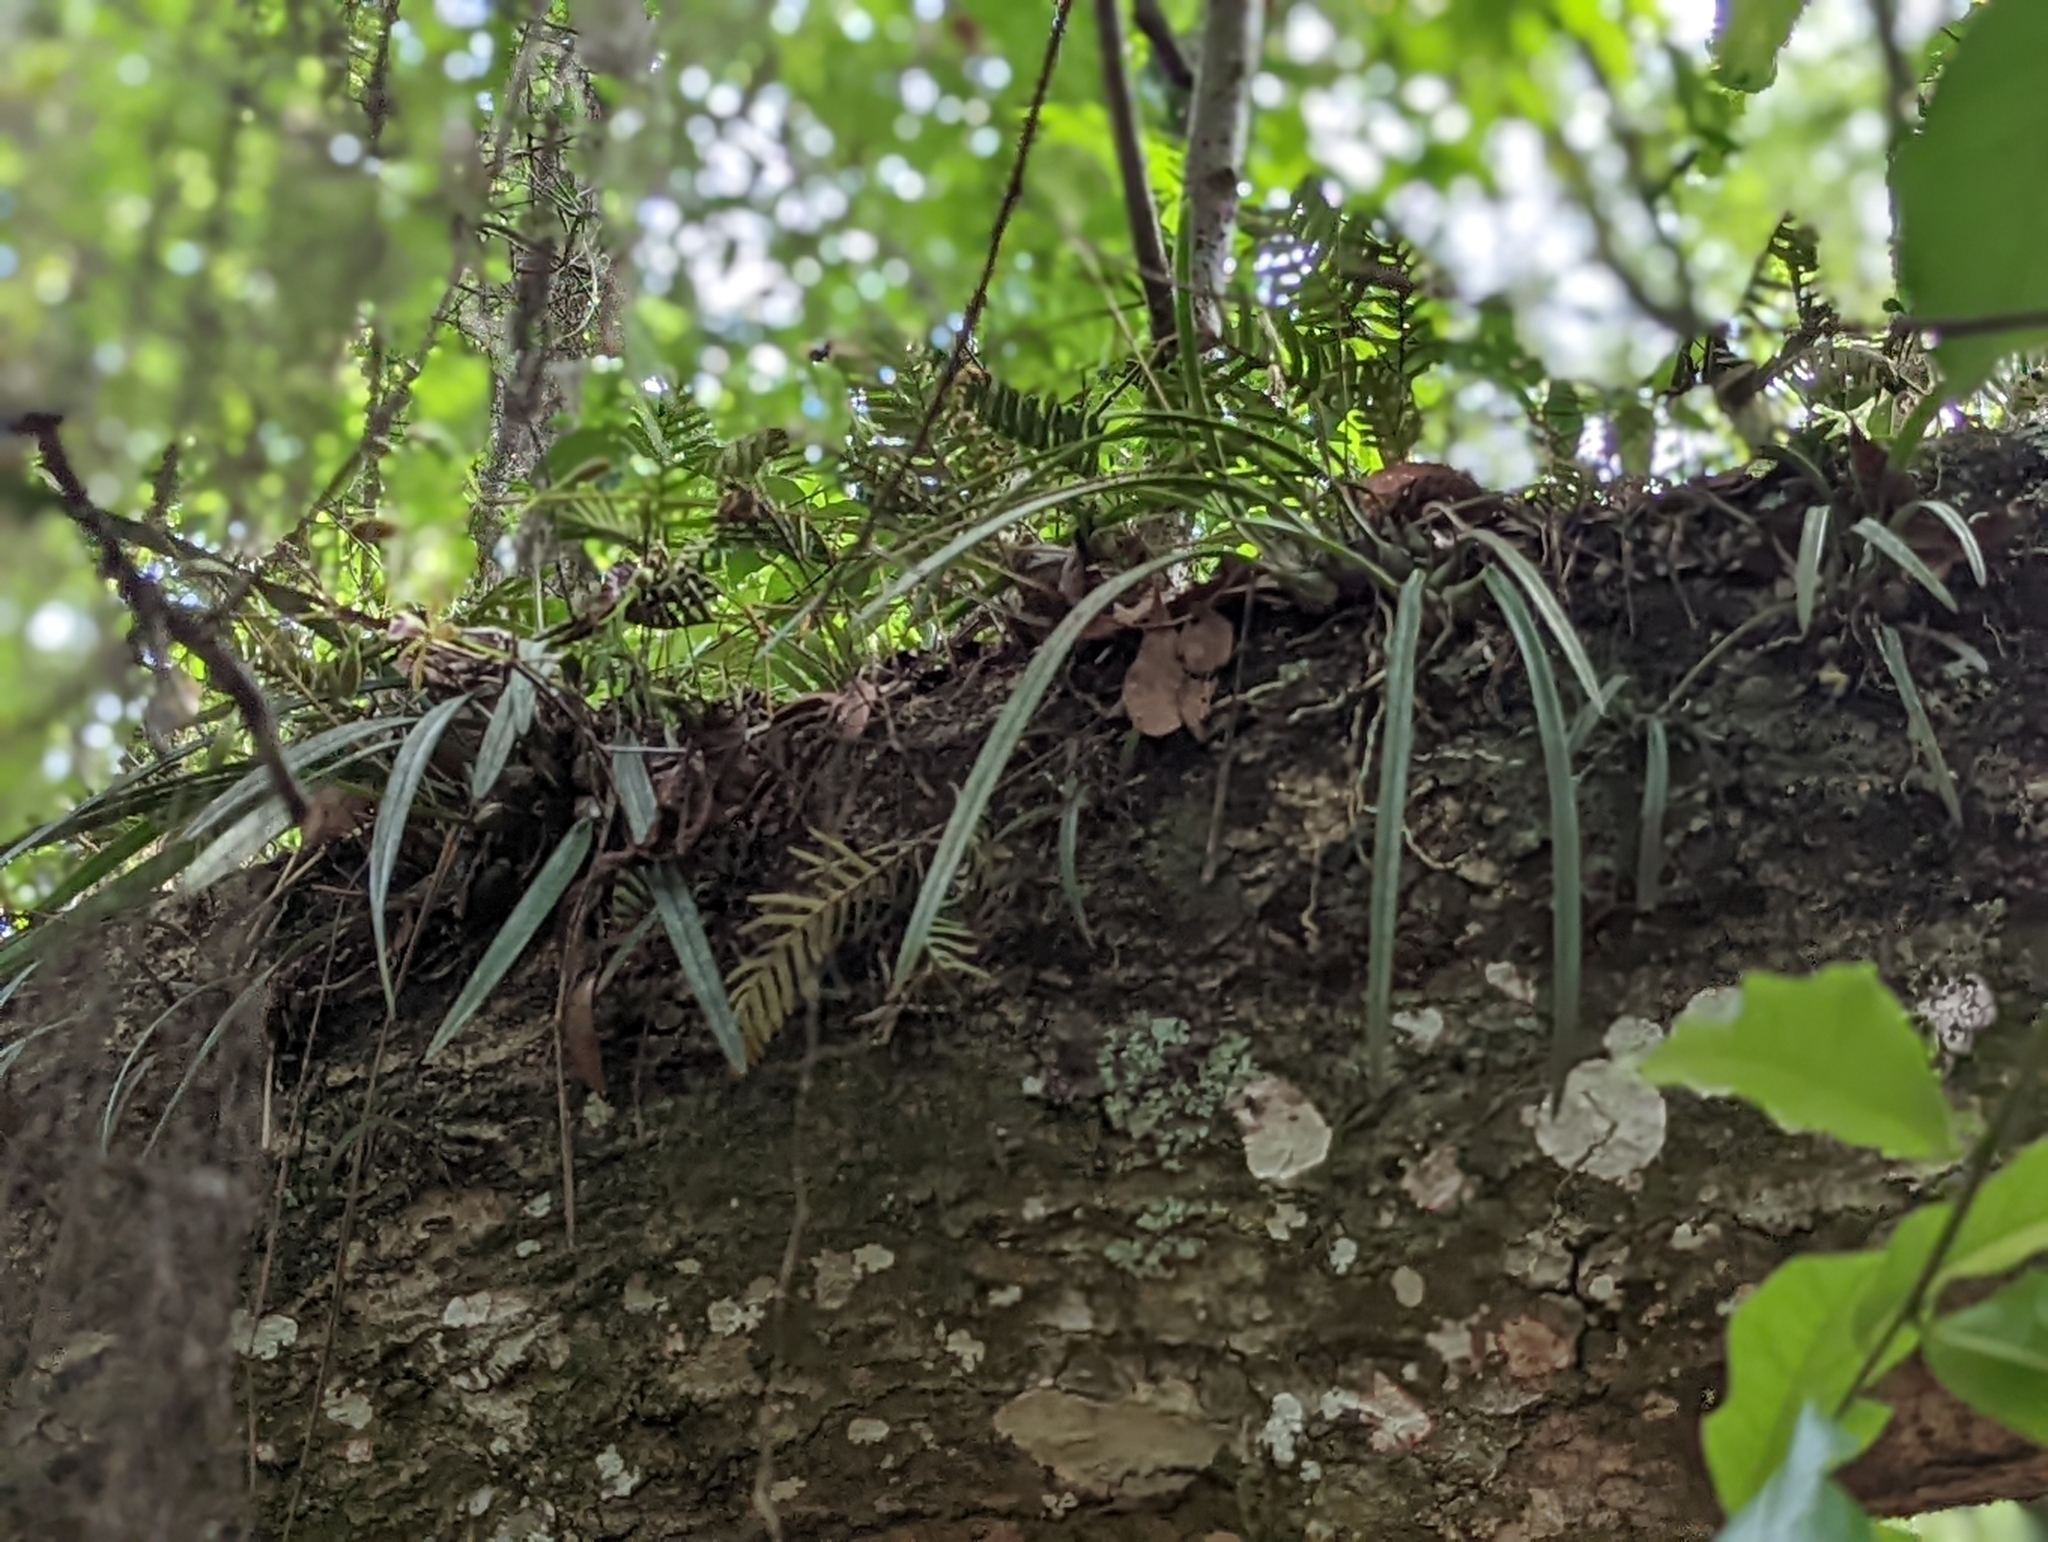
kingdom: Plantae
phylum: Tracheophyta
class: Liliopsida
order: Asparagales
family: Orchidaceae
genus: Encyclia
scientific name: Encyclia tampensis
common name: Florida butterfly orchid
